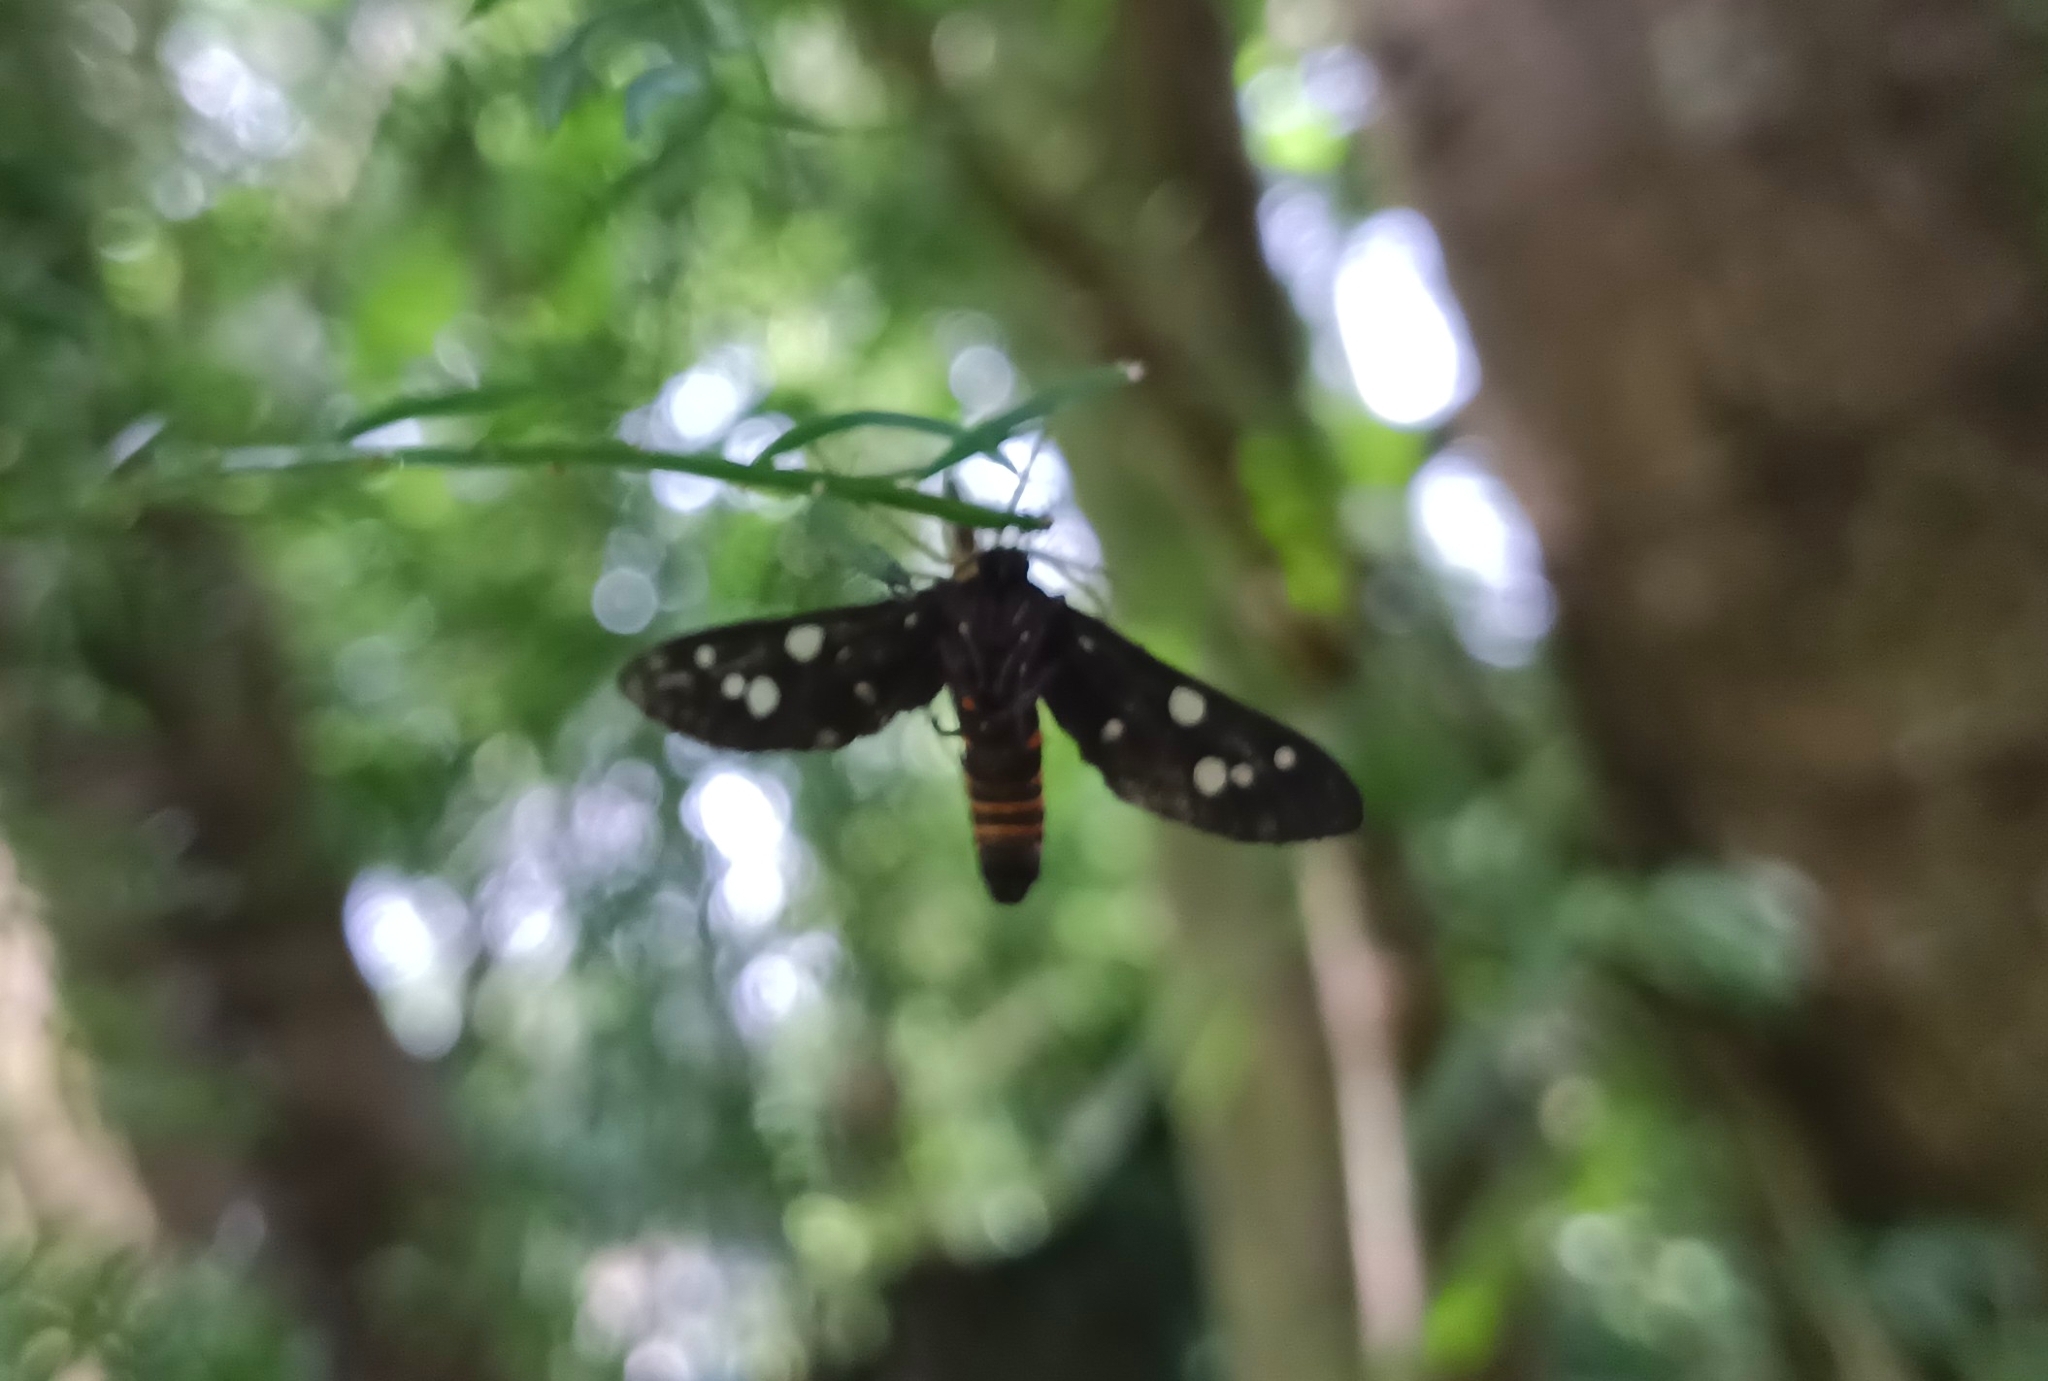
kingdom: Animalia
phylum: Arthropoda
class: Insecta
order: Lepidoptera
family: Erebidae
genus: Amata
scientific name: Amata passalis
